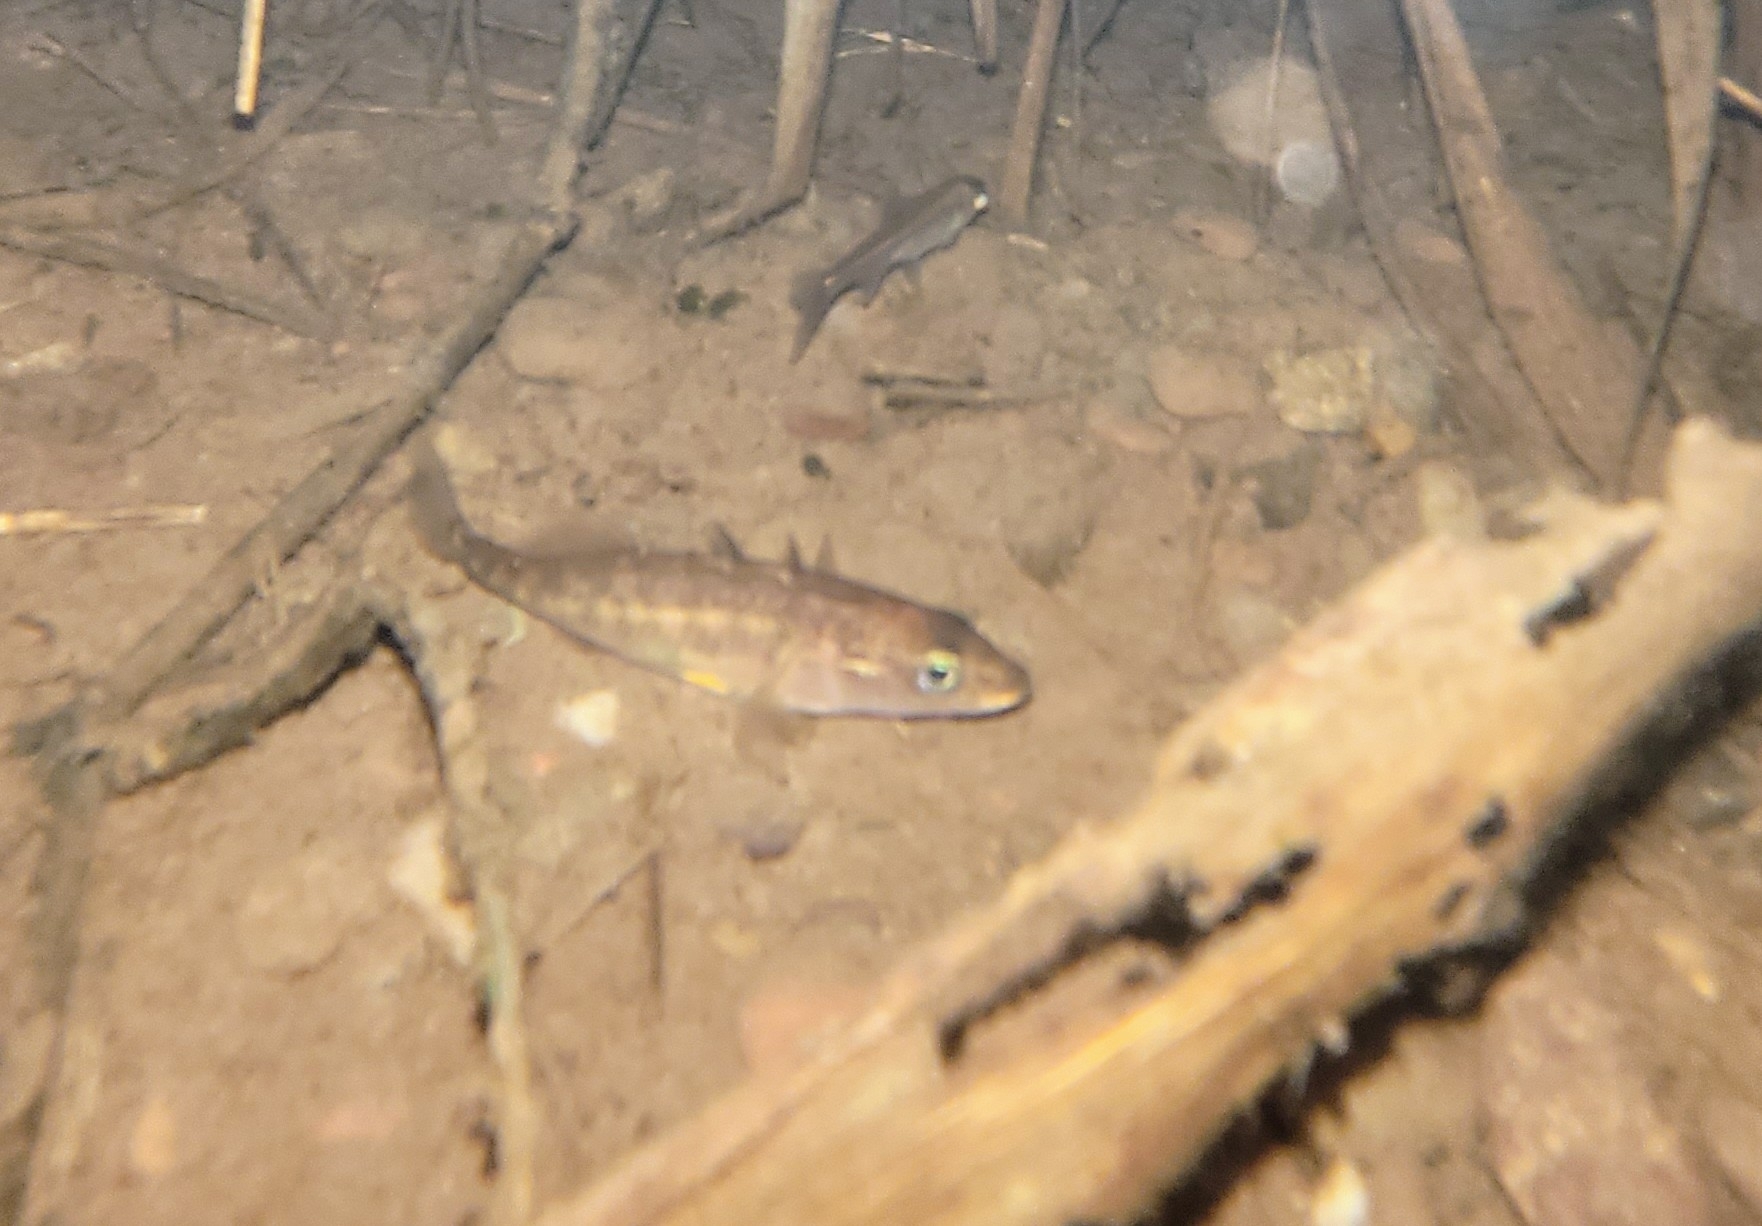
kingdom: Animalia
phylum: Chordata
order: Gasterosteiformes
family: Gasterosteidae
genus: Gasterosteus
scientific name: Gasterosteus aculeatus
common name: Three-spined stickleback
